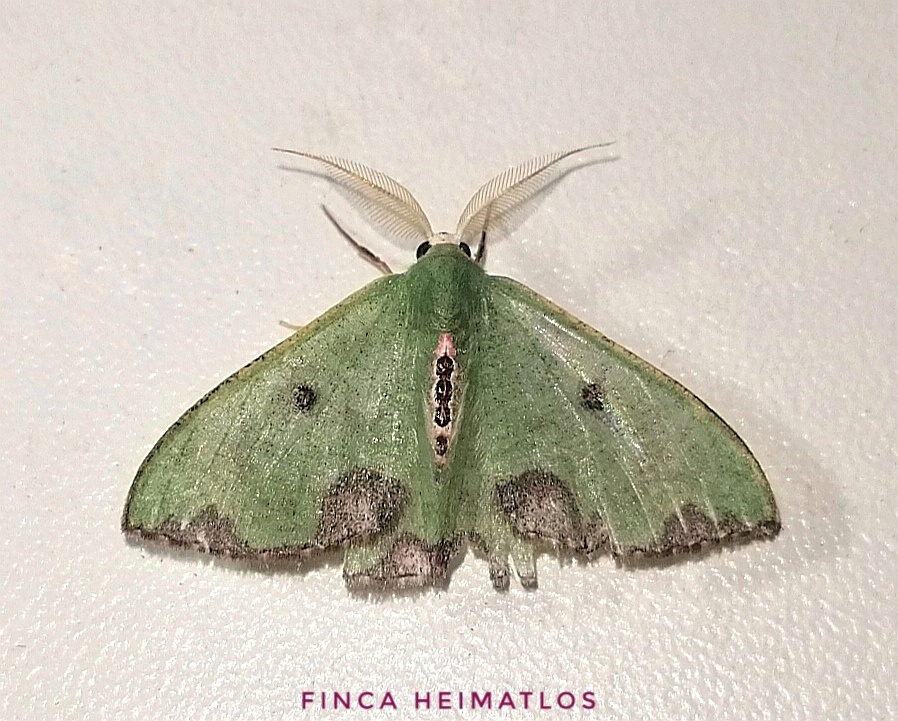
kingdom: Animalia
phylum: Arthropoda
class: Insecta
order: Lepidoptera
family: Geometridae
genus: Oospila
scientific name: Oospila tricamerata
